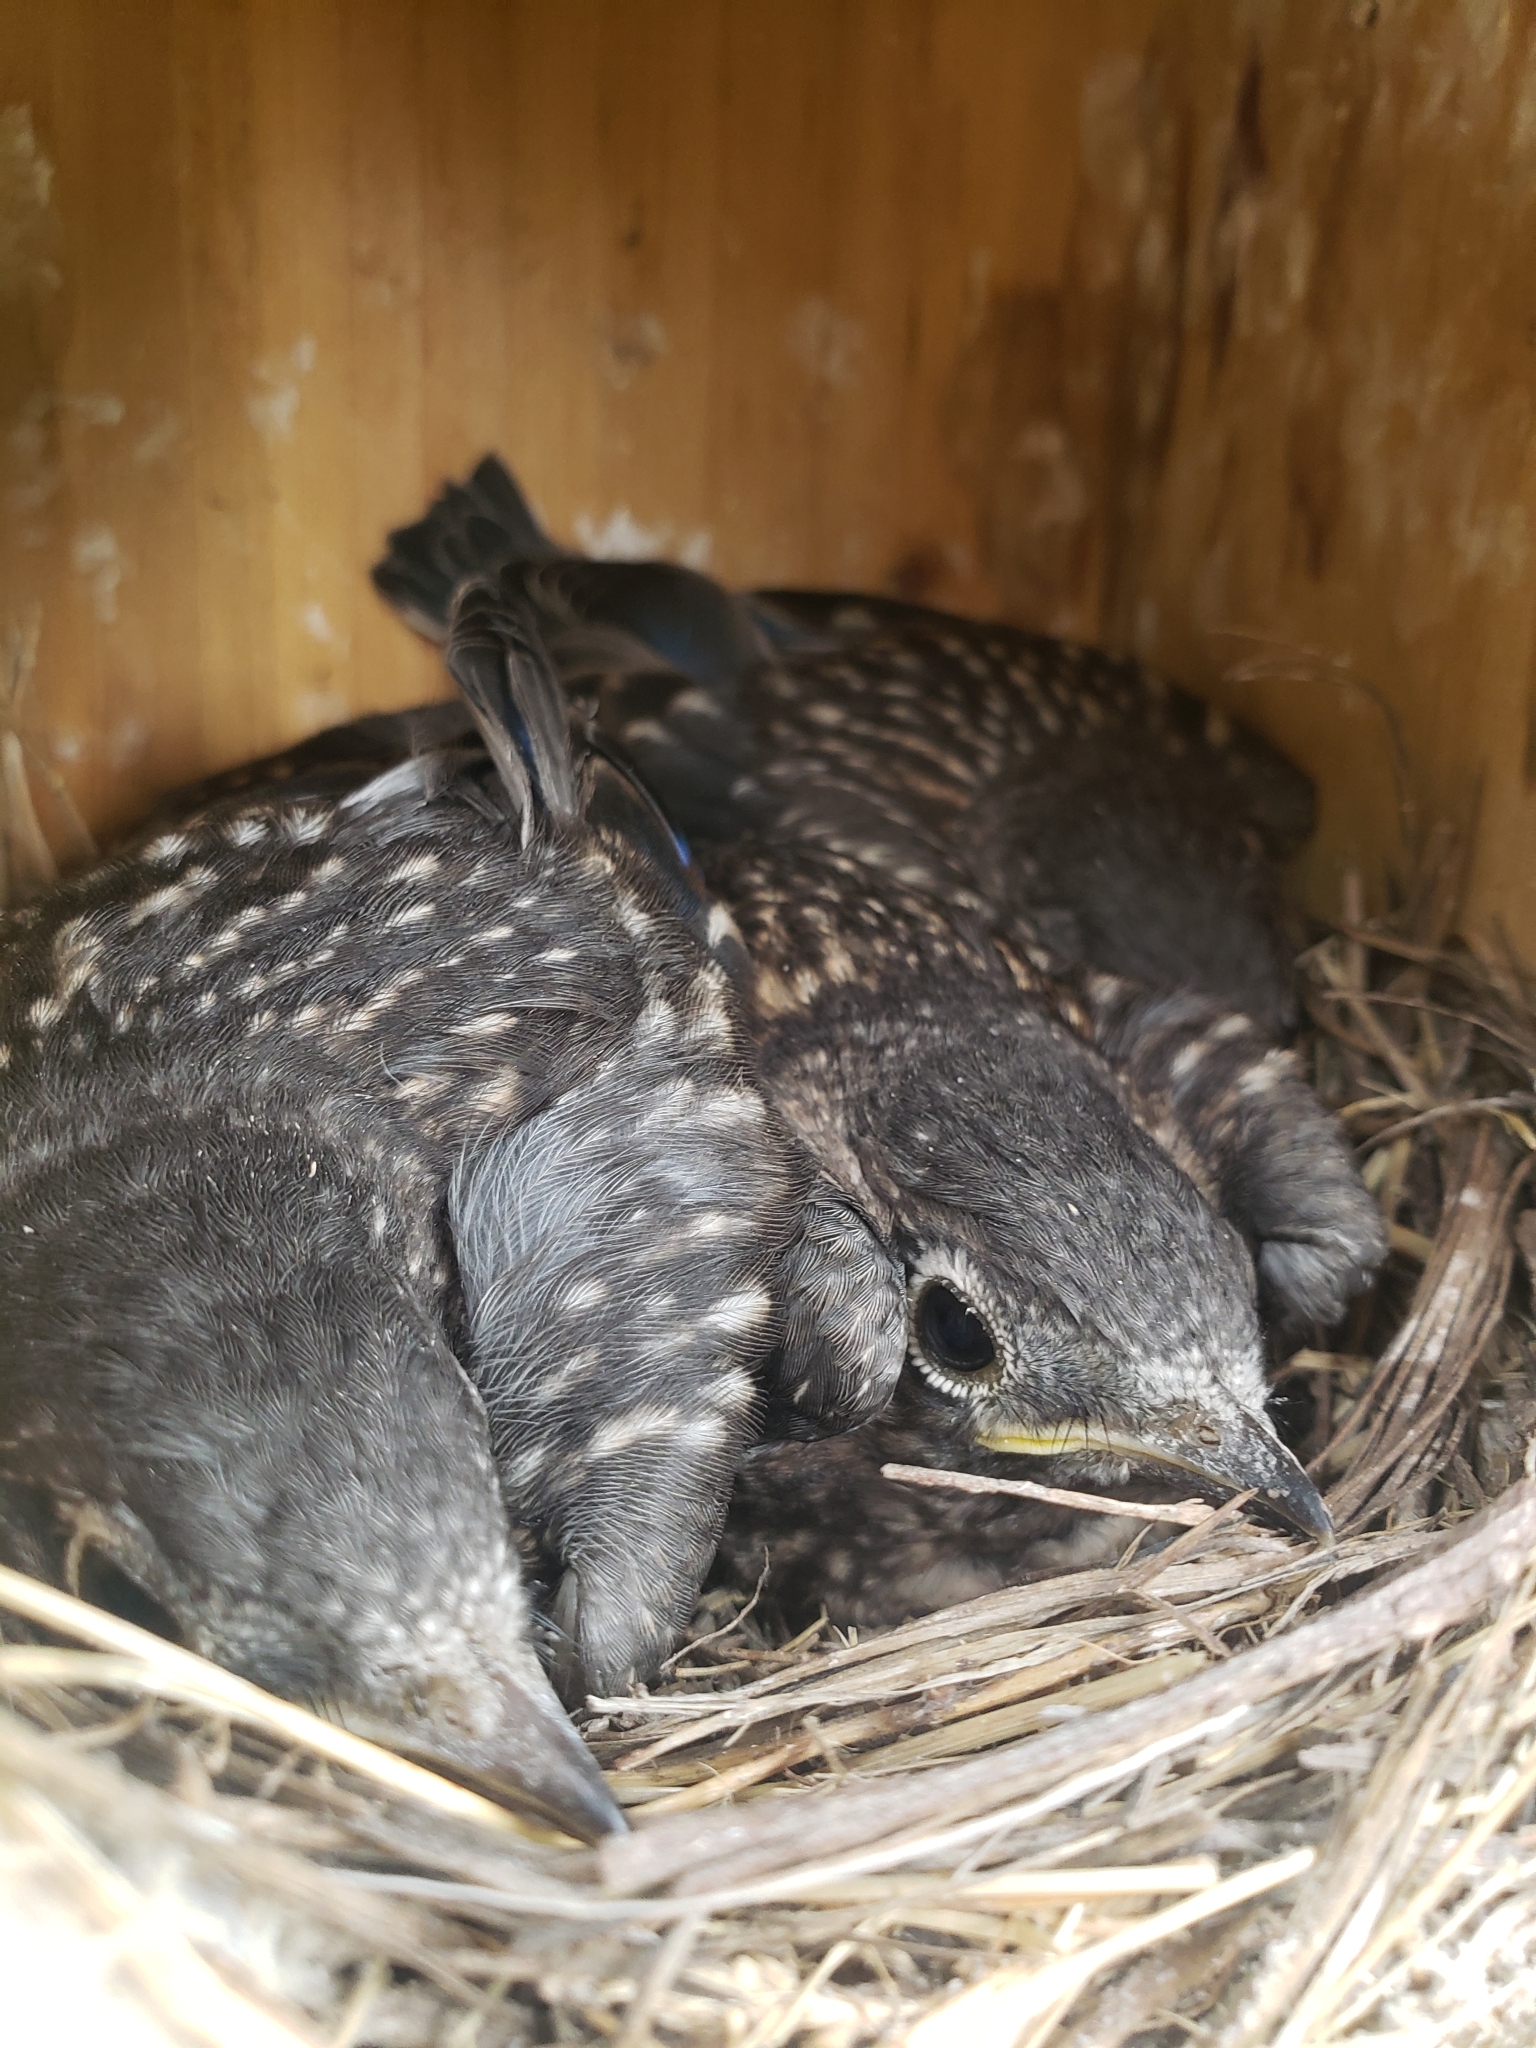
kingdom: Animalia
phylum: Chordata
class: Aves
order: Passeriformes
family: Turdidae
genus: Sialia
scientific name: Sialia sialis
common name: Eastern bluebird
